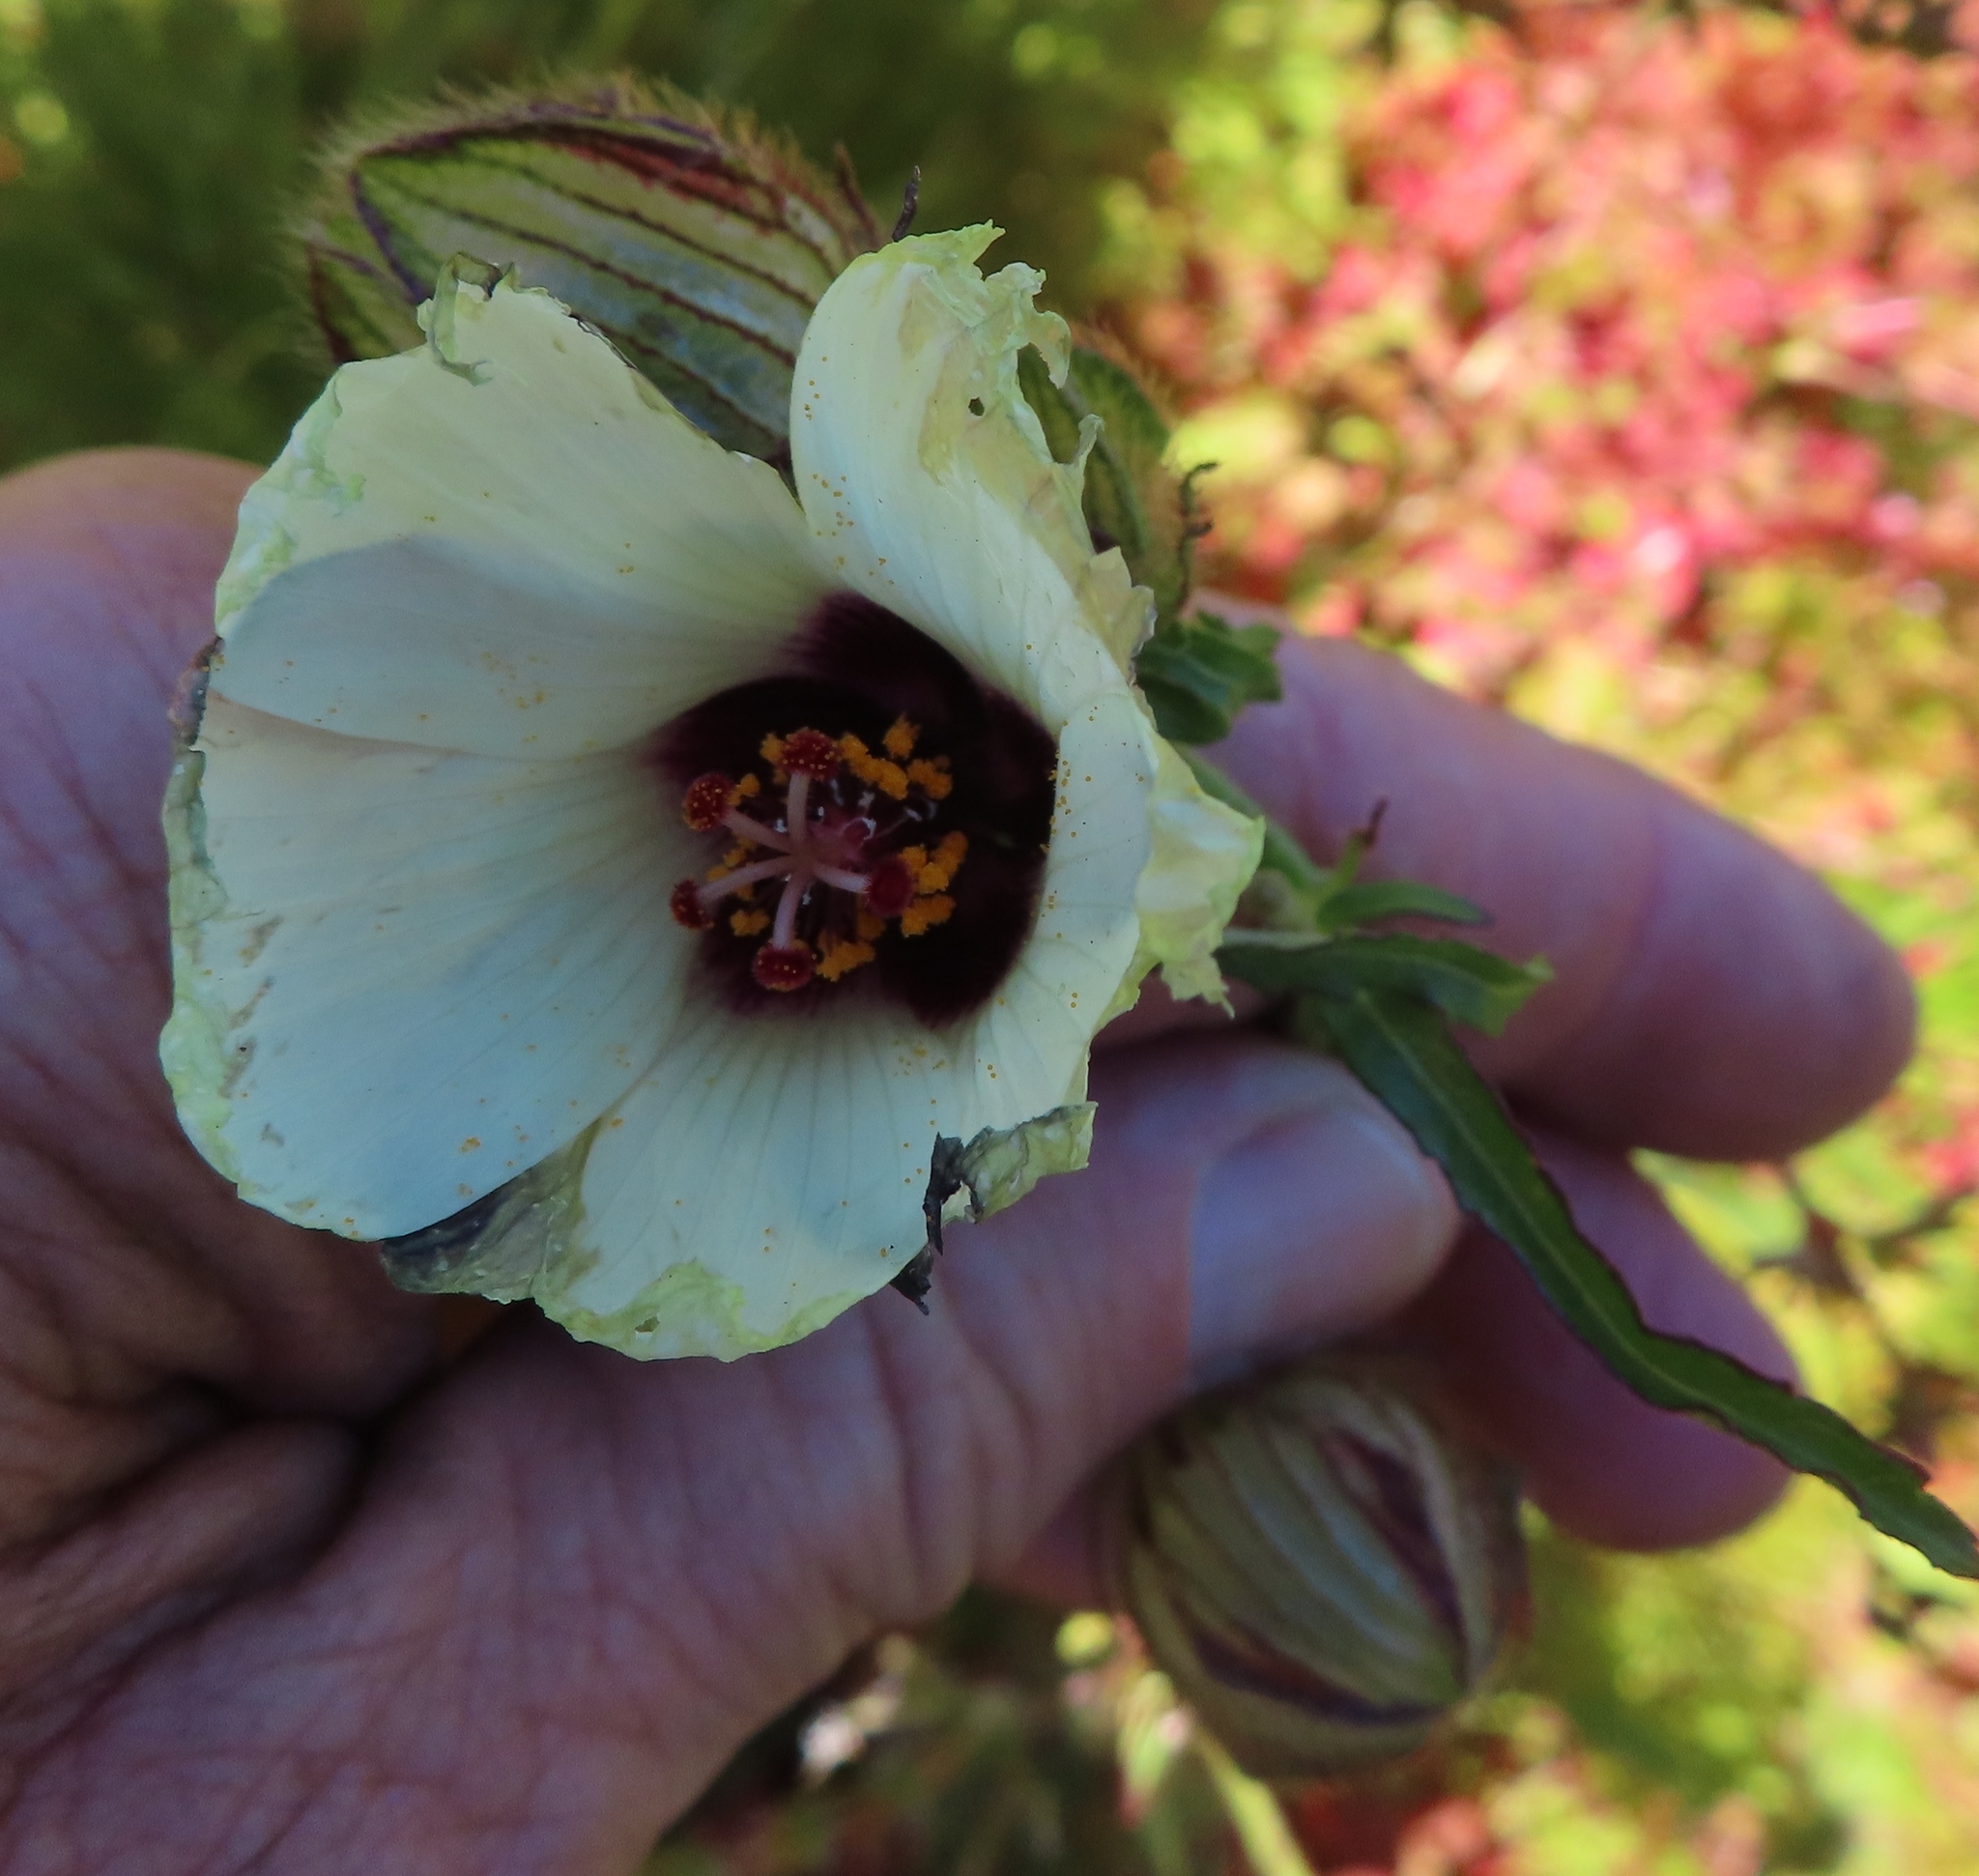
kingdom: Plantae
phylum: Tracheophyta
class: Magnoliopsida
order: Malvales
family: Malvaceae
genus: Hibiscus
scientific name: Hibiscus trionum
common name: Bladder ketmia
